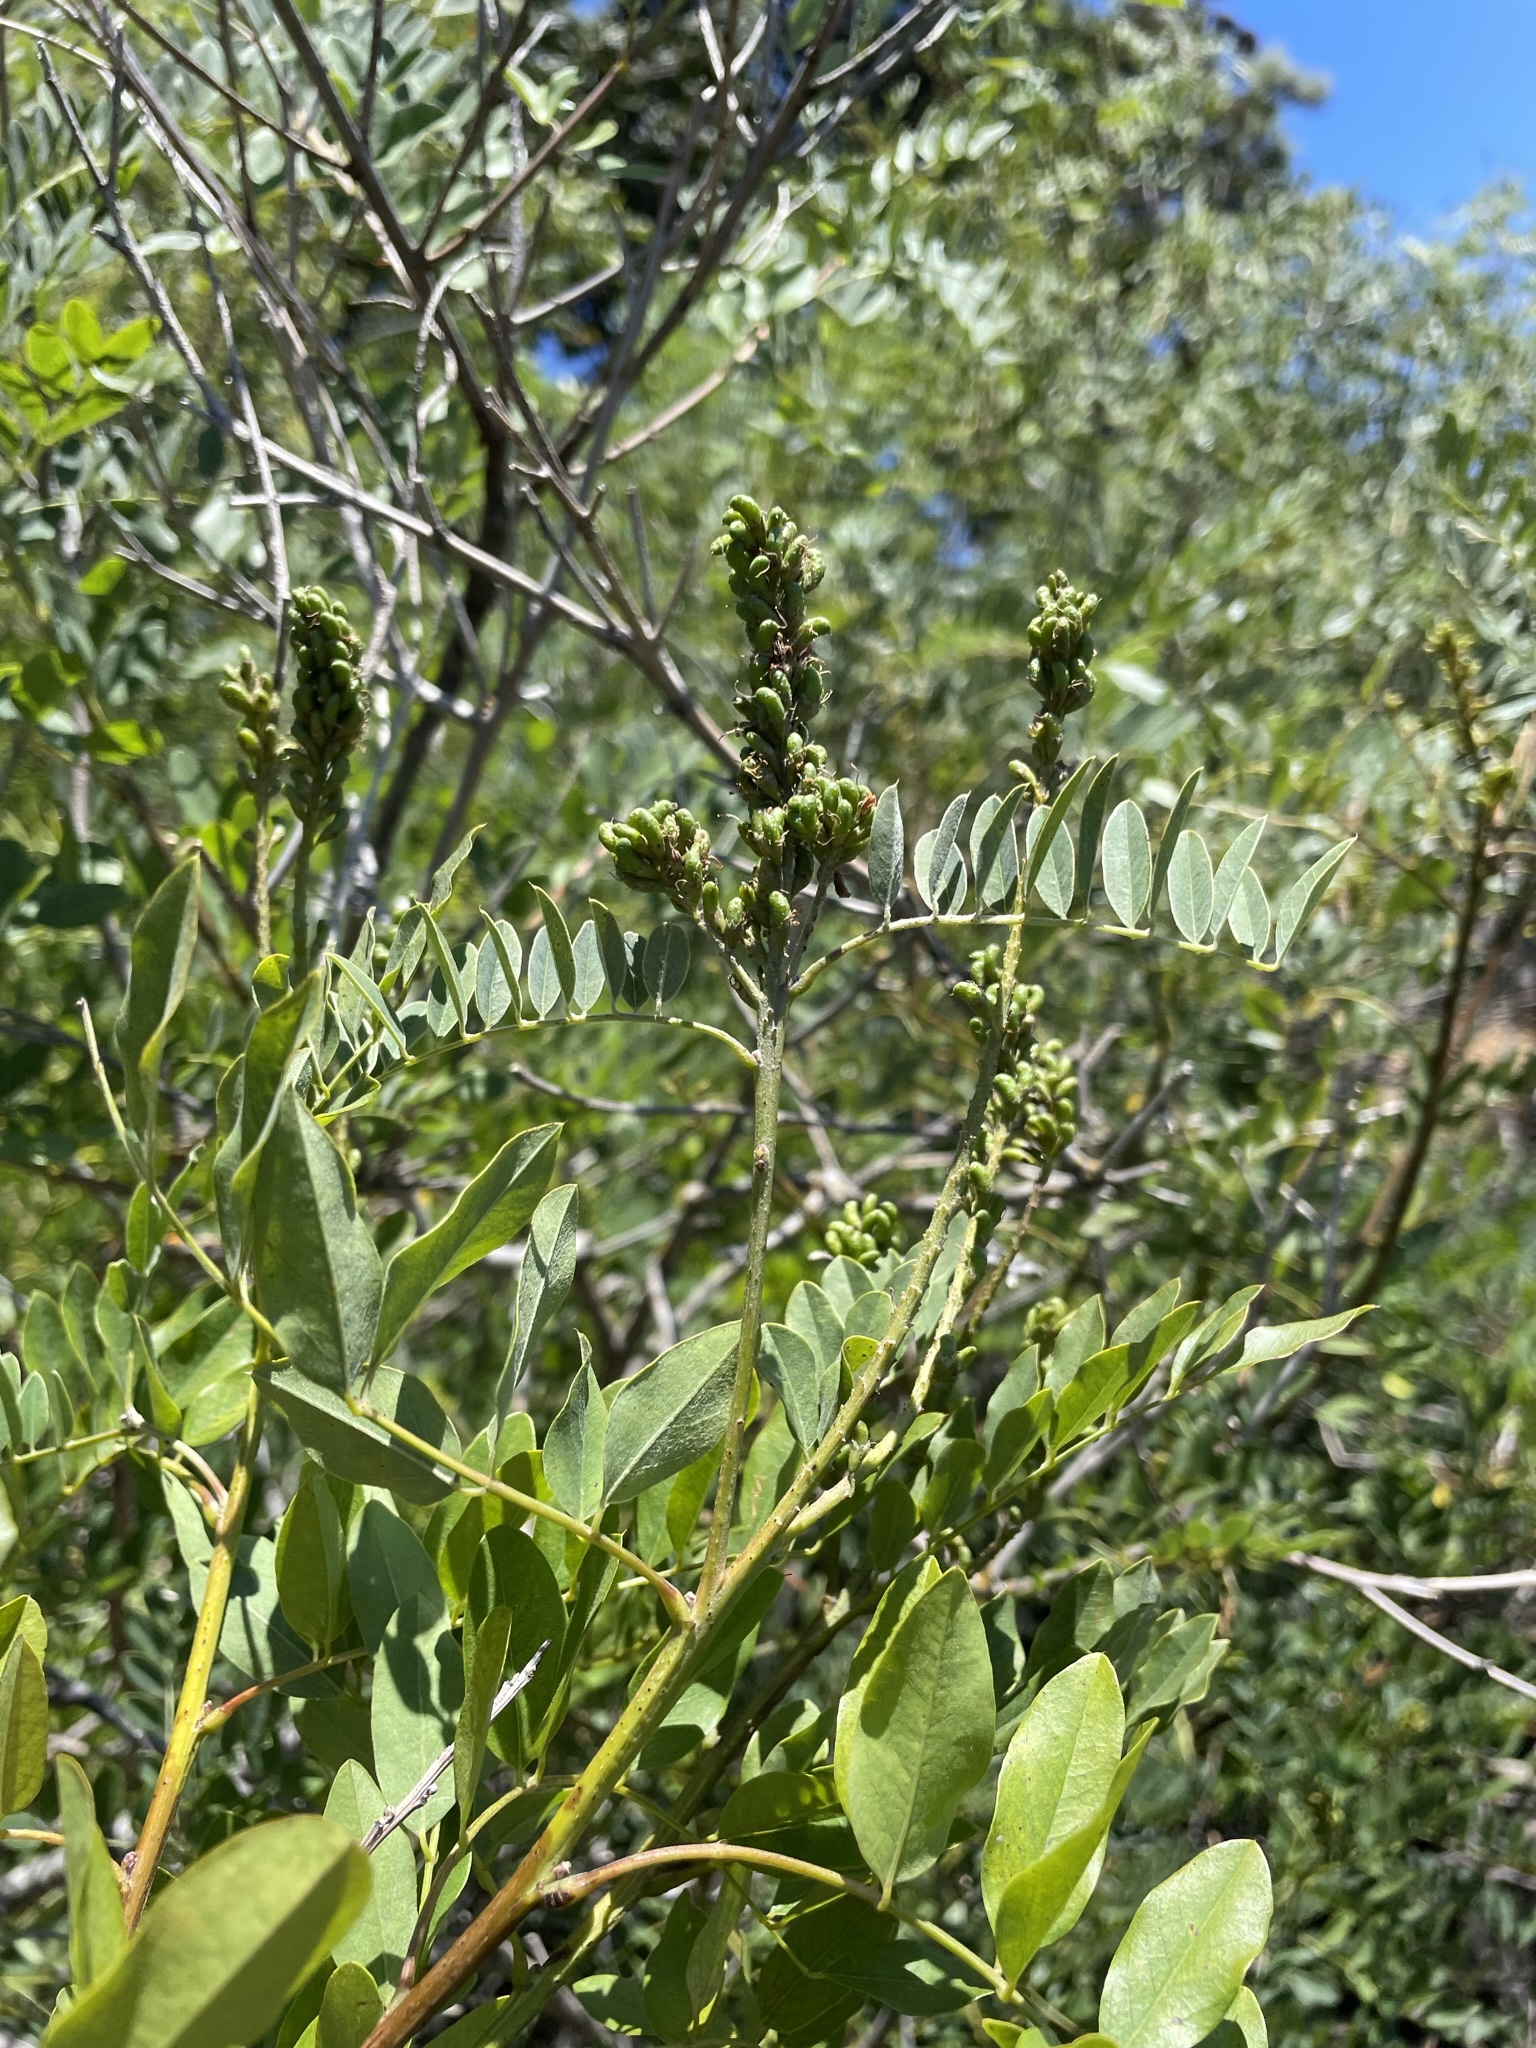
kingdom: Plantae
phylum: Tracheophyta
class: Magnoliopsida
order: Fabales
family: Fabaceae
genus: Amorpha
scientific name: Amorpha fruticosa
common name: False indigo
